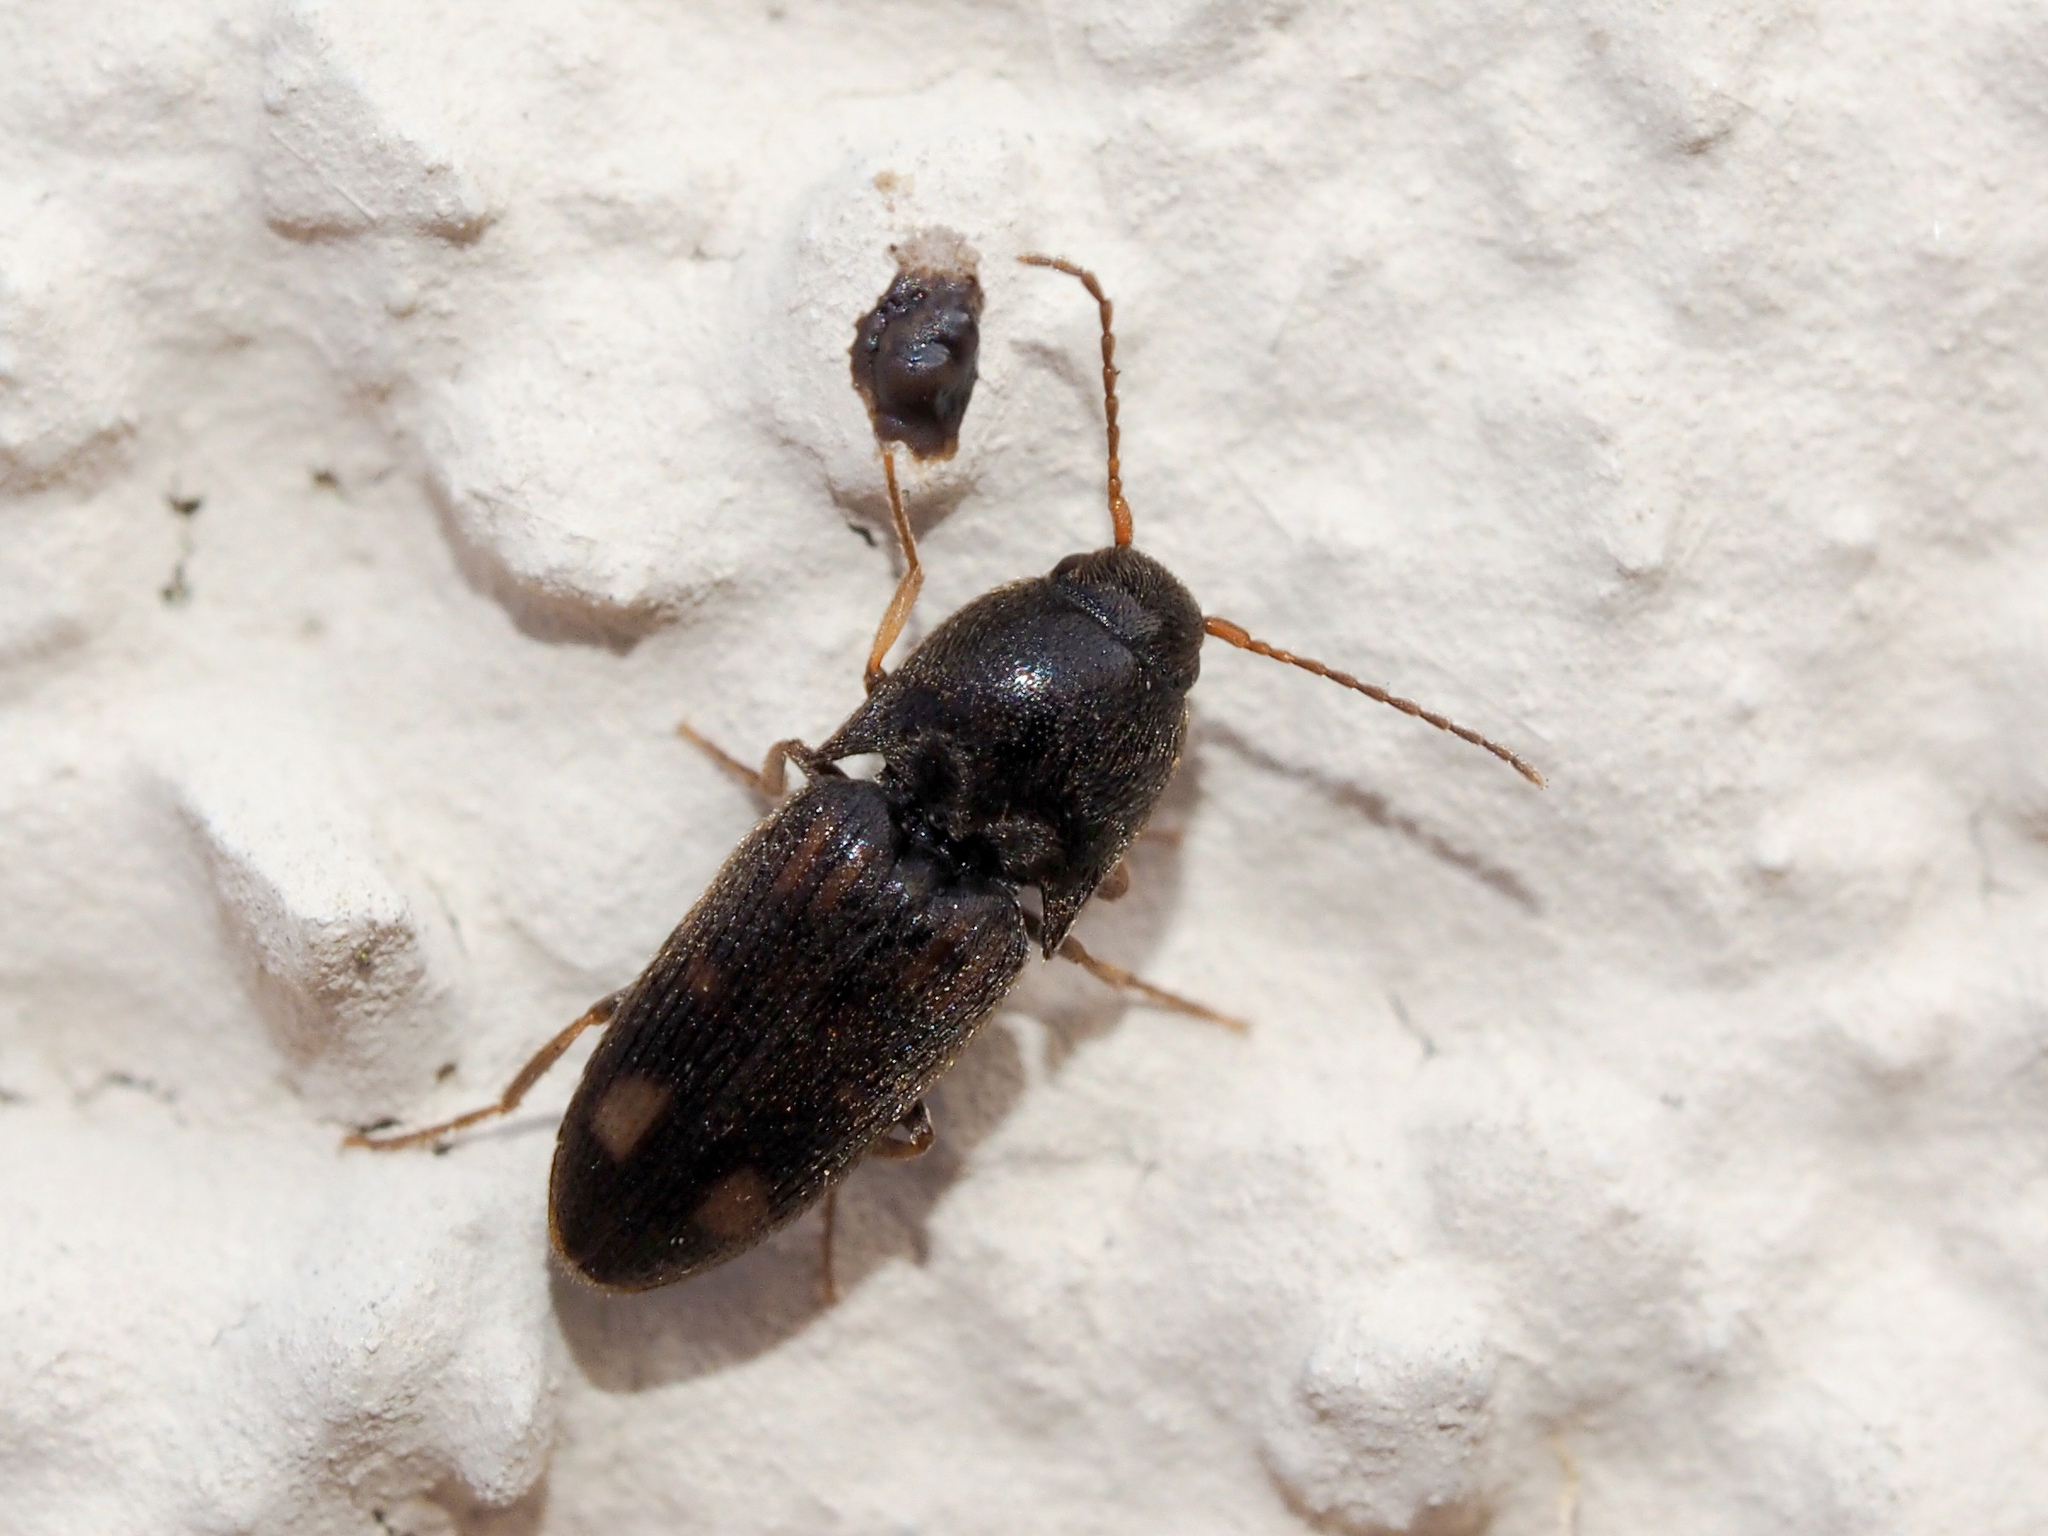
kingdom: Animalia
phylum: Arthropoda
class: Insecta
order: Coleoptera
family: Elateridae
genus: Drasterius
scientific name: Drasterius bimaculatus
